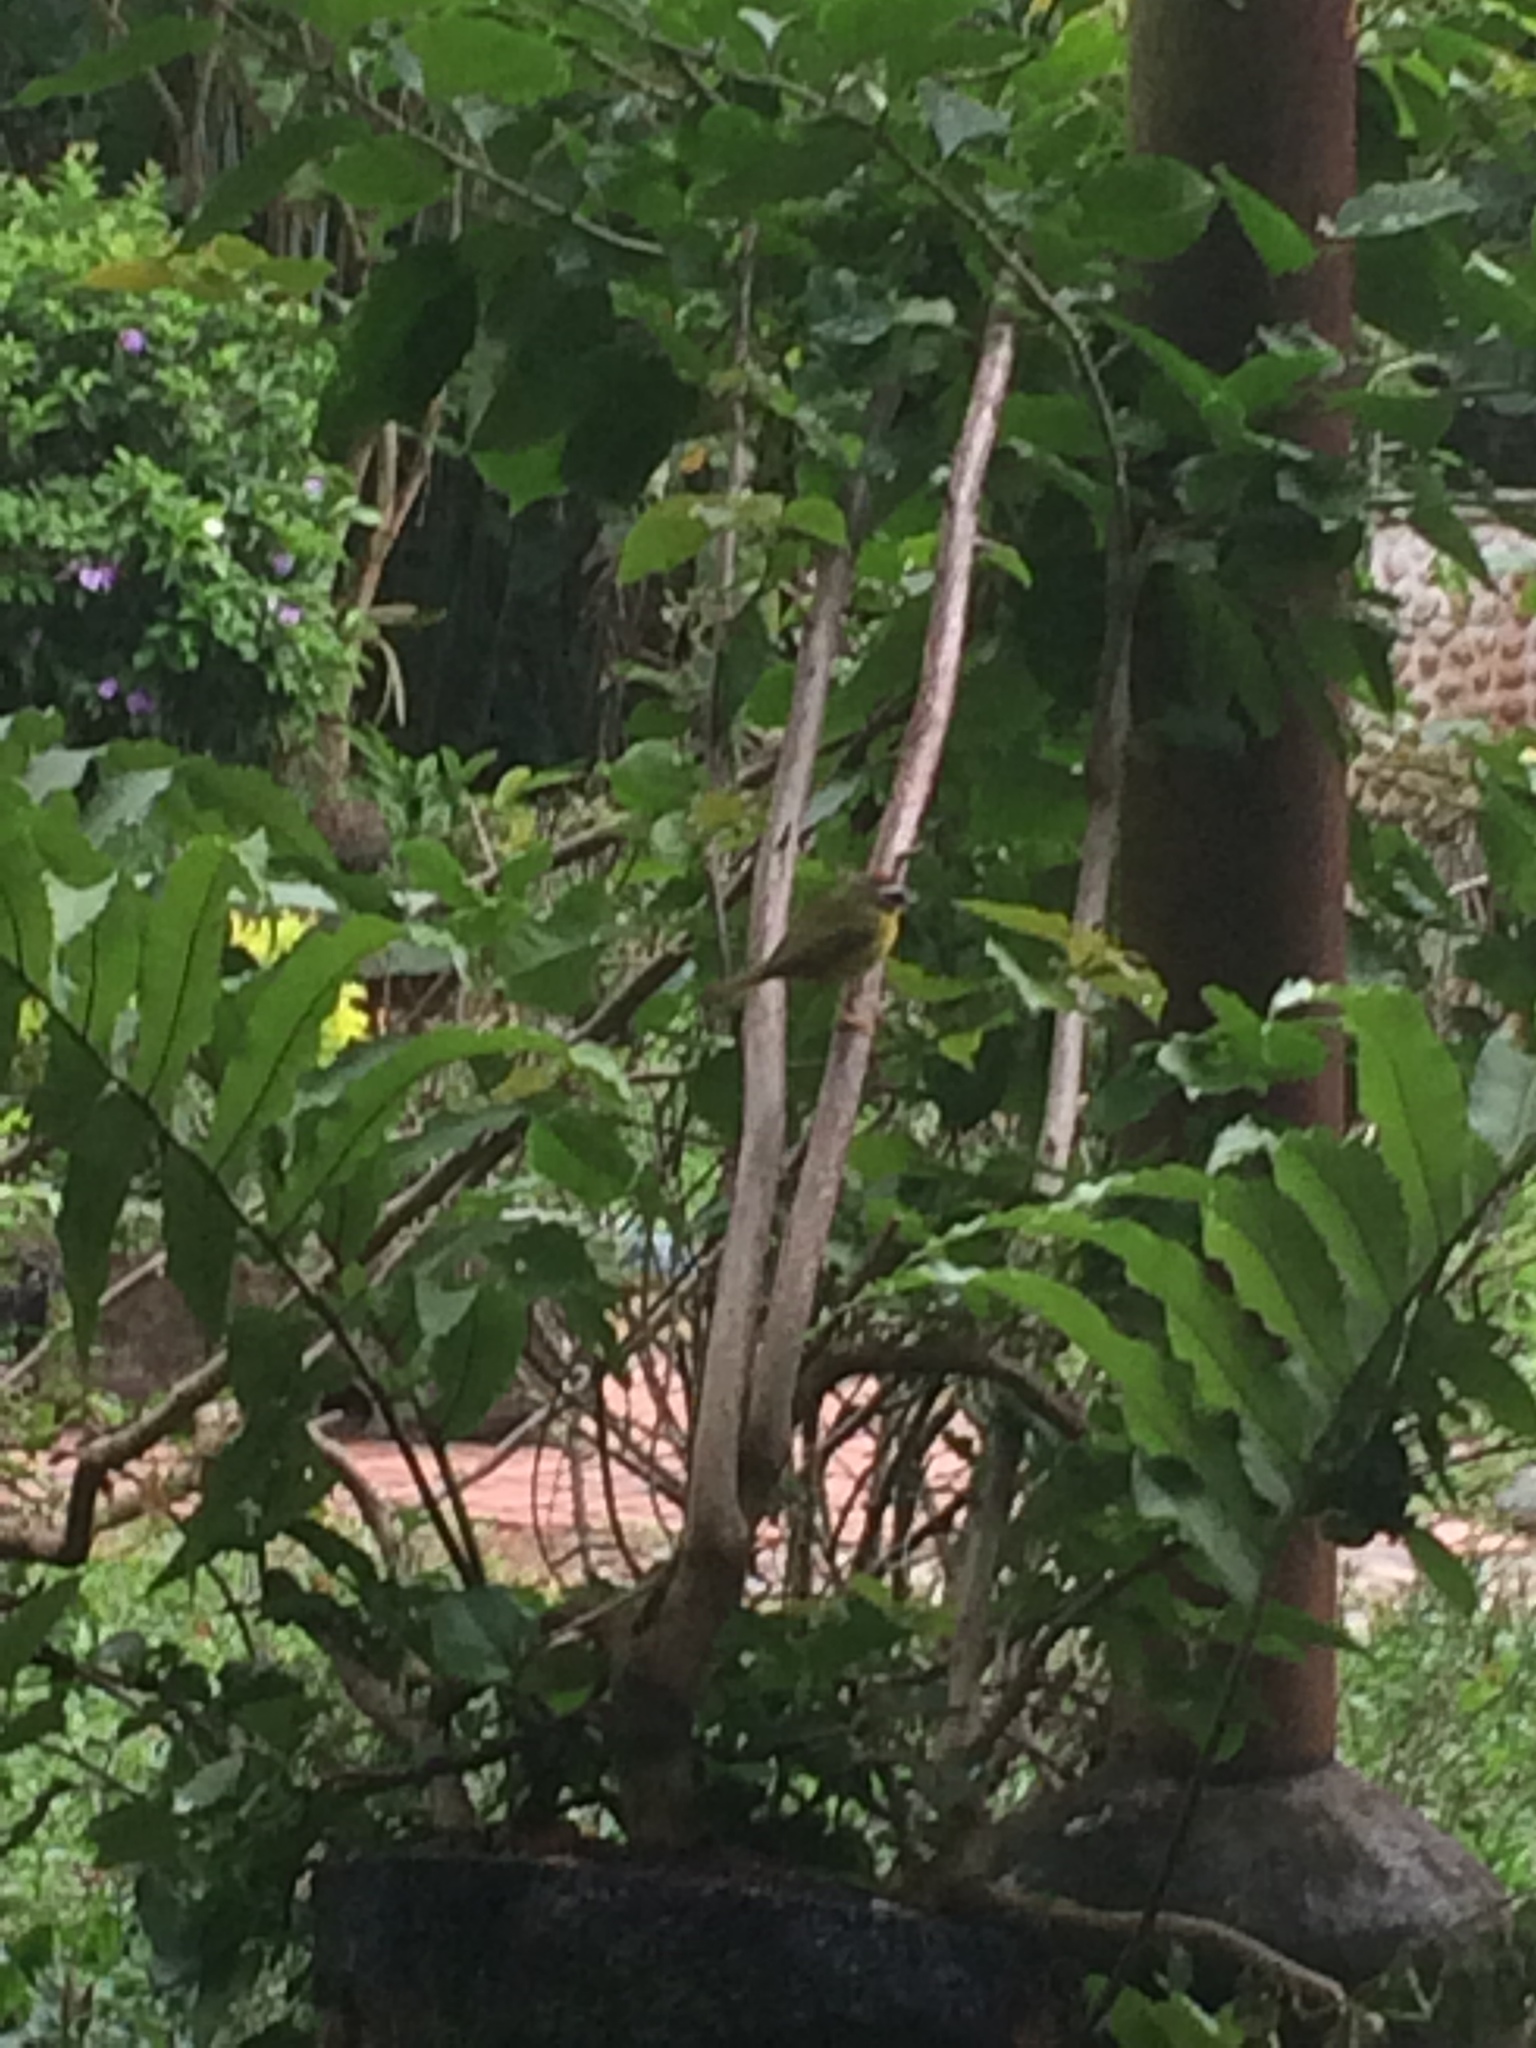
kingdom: Animalia
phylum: Chordata
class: Aves
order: Passeriformes
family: Parulidae
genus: Basileuterus
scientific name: Basileuterus rufifrons
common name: Rufous-capped warbler
